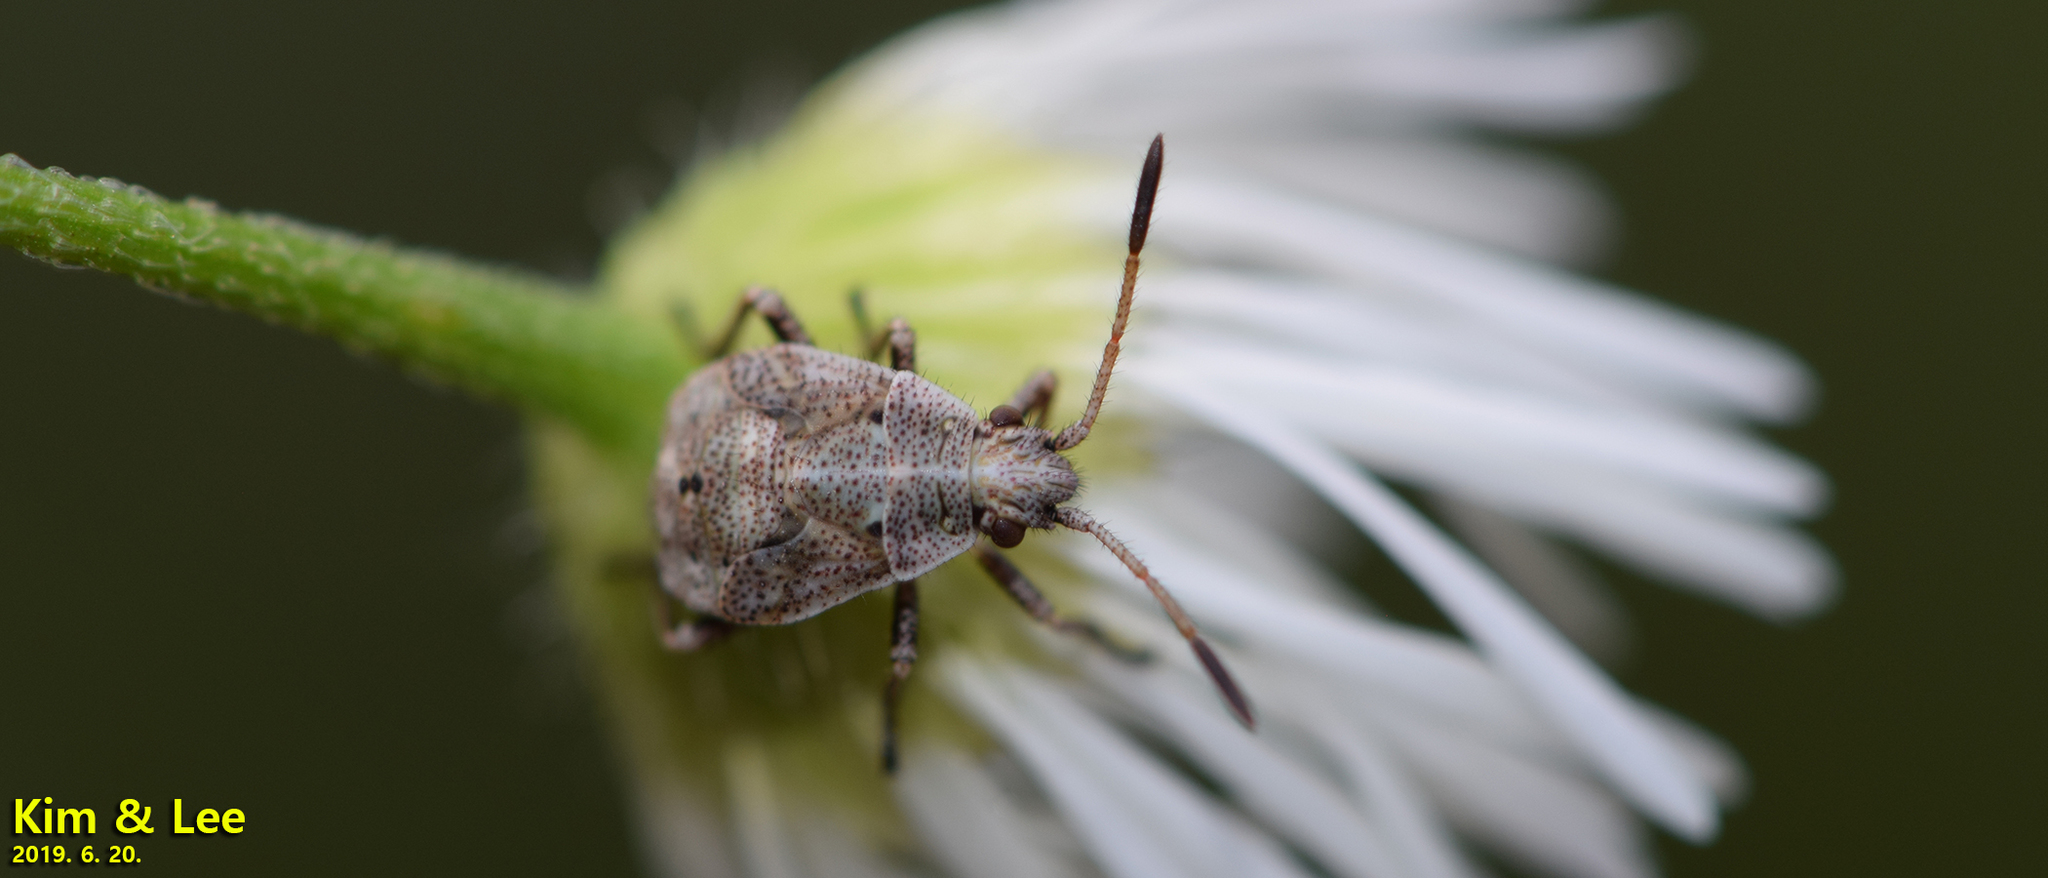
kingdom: Animalia
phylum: Arthropoda
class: Insecta
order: Hemiptera
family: Rhopalidae
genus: Stictopleurus
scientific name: Stictopleurus minutus
